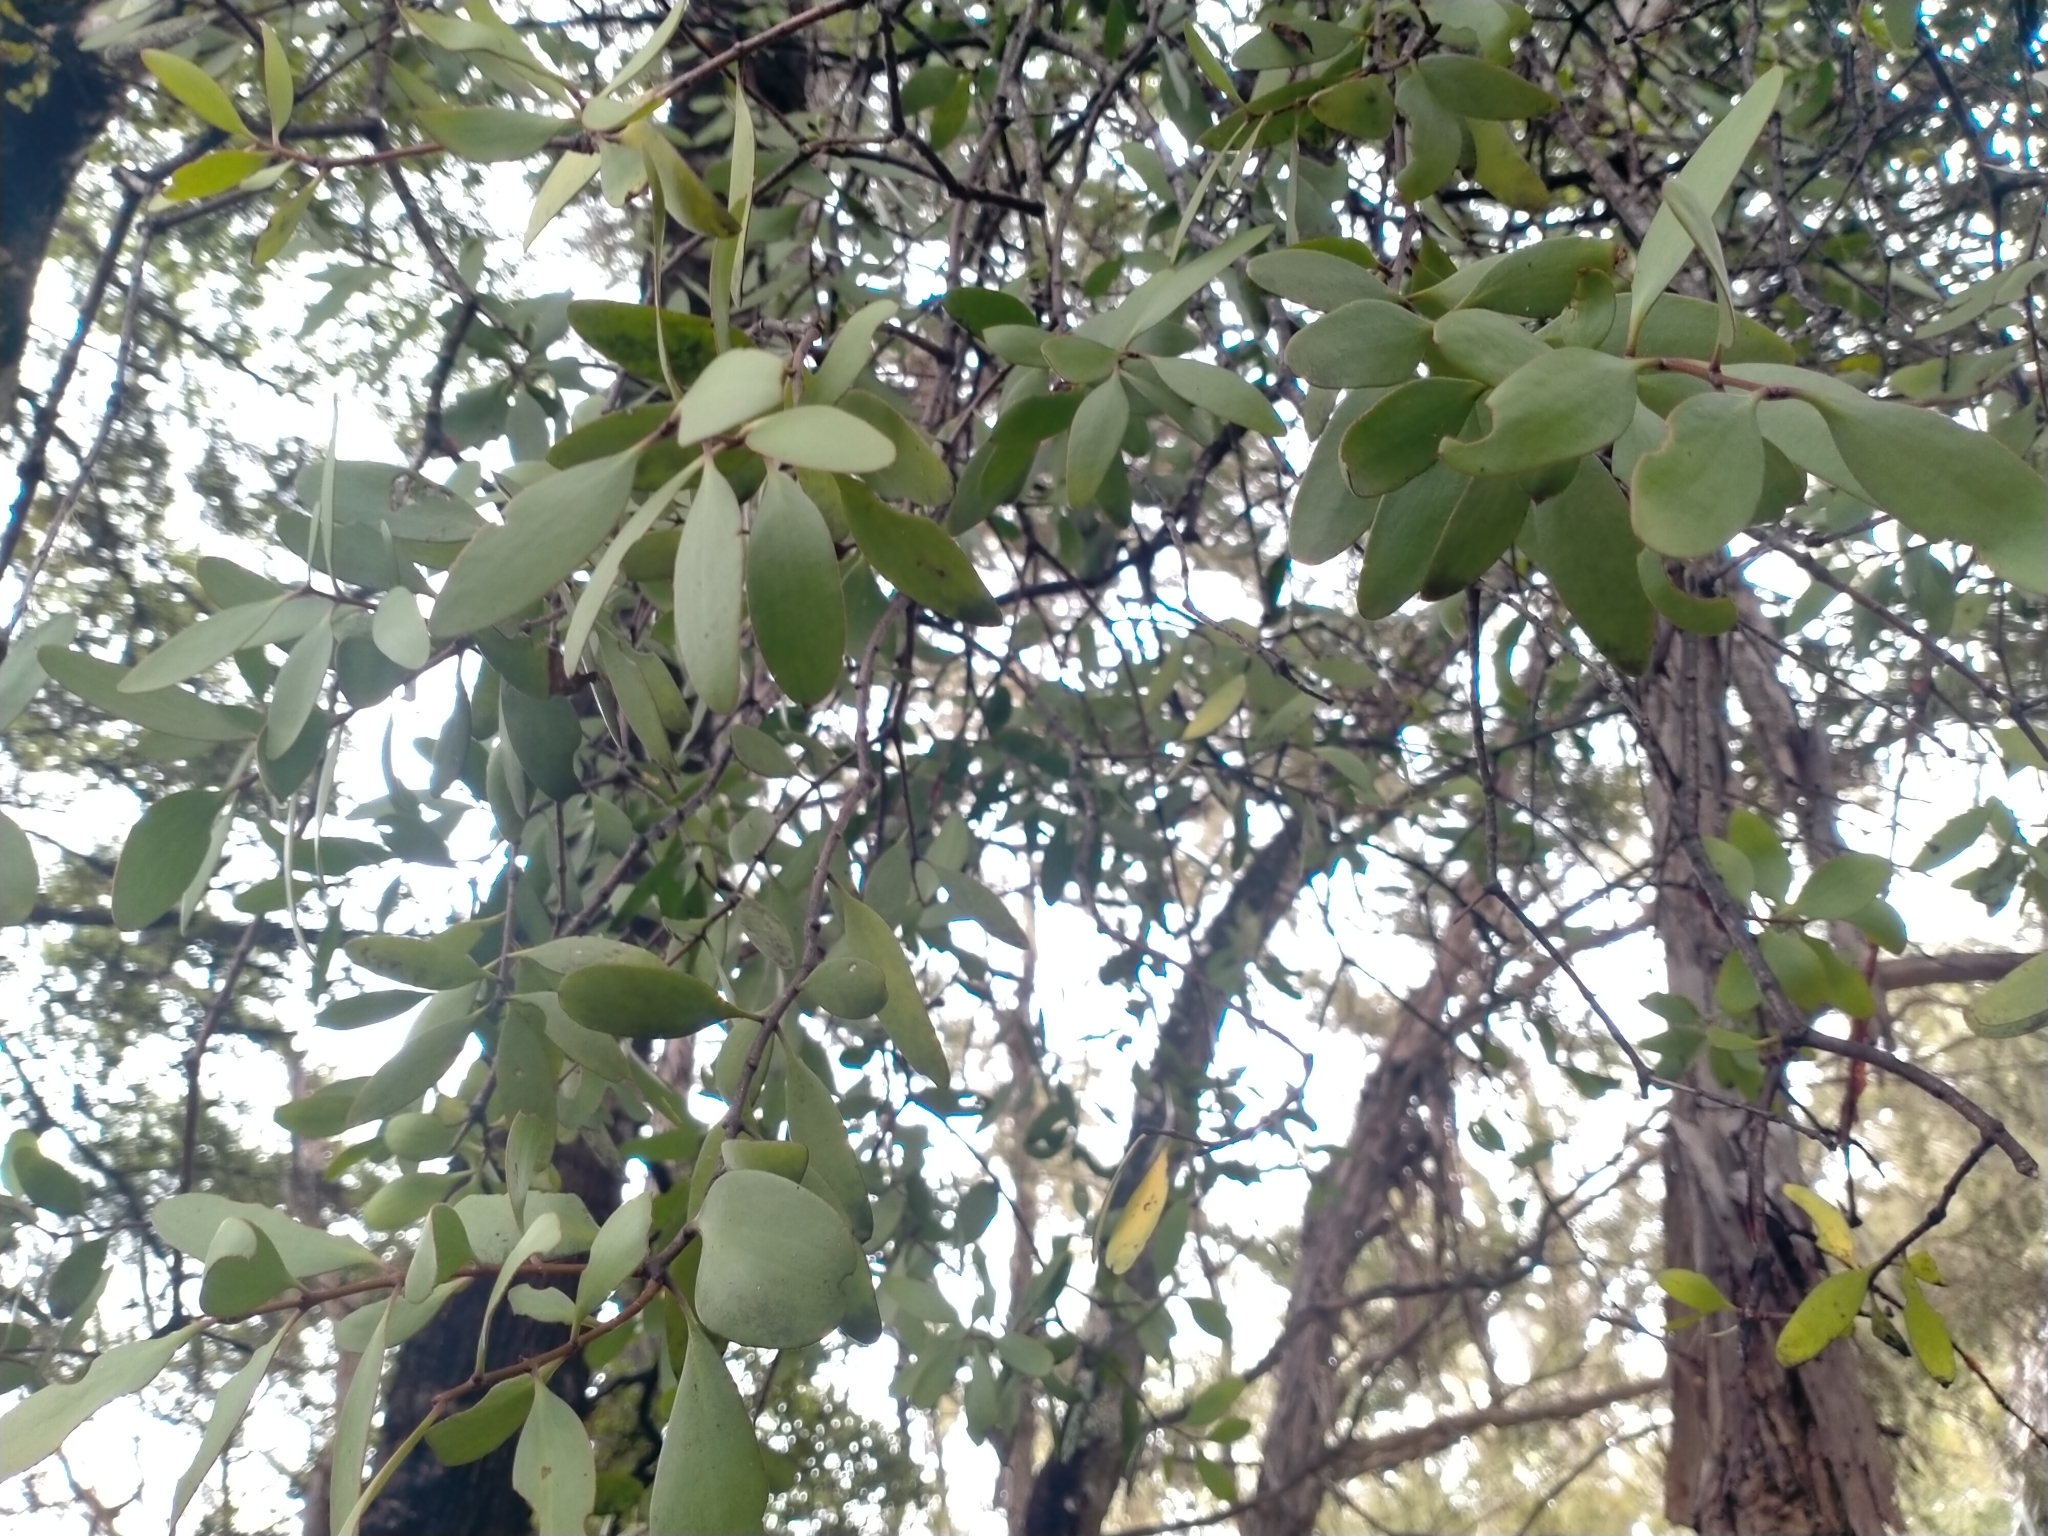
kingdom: Plantae
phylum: Tracheophyta
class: Magnoliopsida
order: Santalales
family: Loranthaceae
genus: Alepis
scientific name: Alepis flavida
